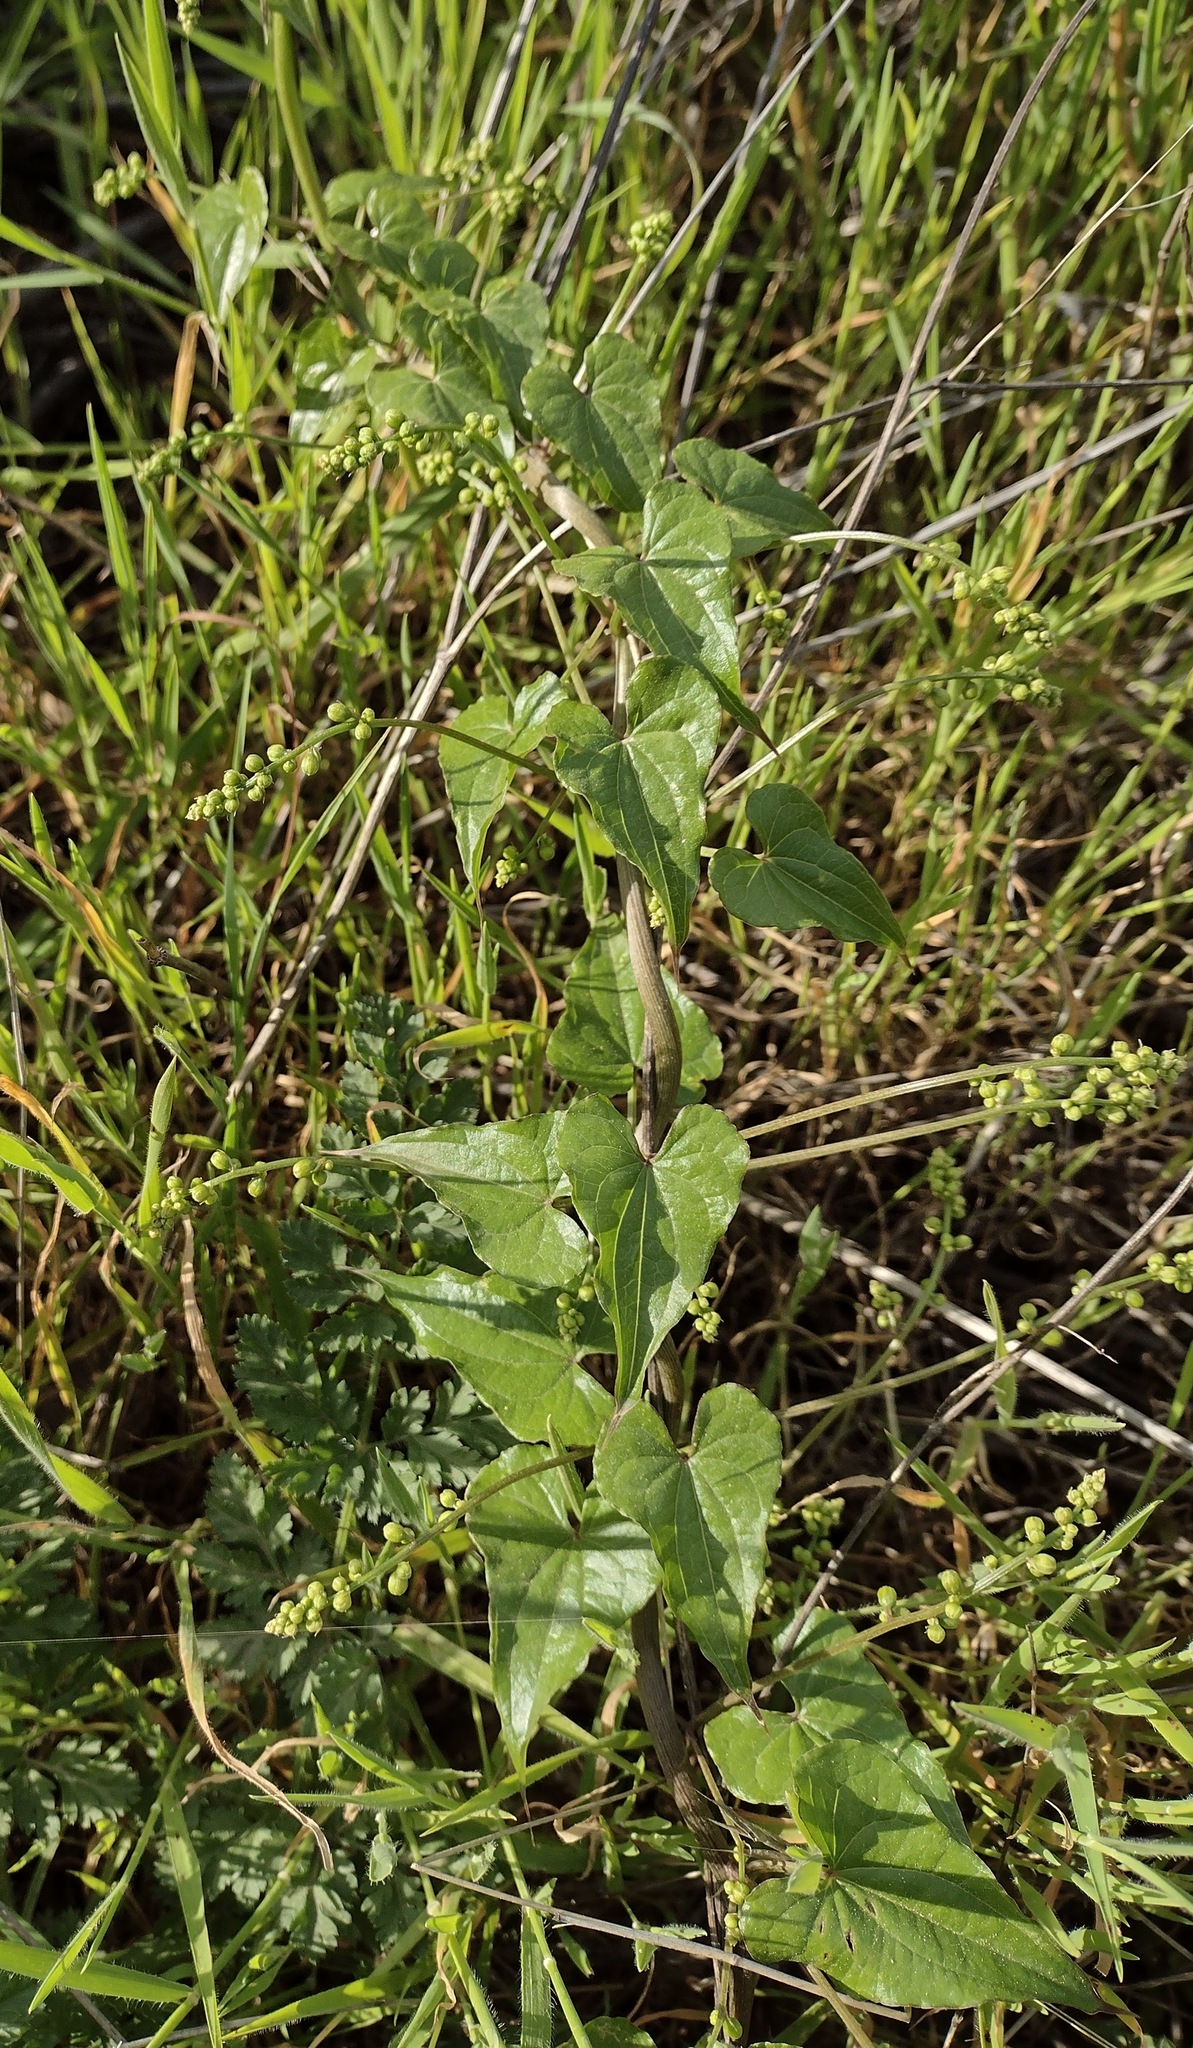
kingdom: Plantae
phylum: Tracheophyta
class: Liliopsida
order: Dioscoreales
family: Dioscoreaceae
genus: Dioscorea
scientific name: Dioscorea communis
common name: Black-bindweed
